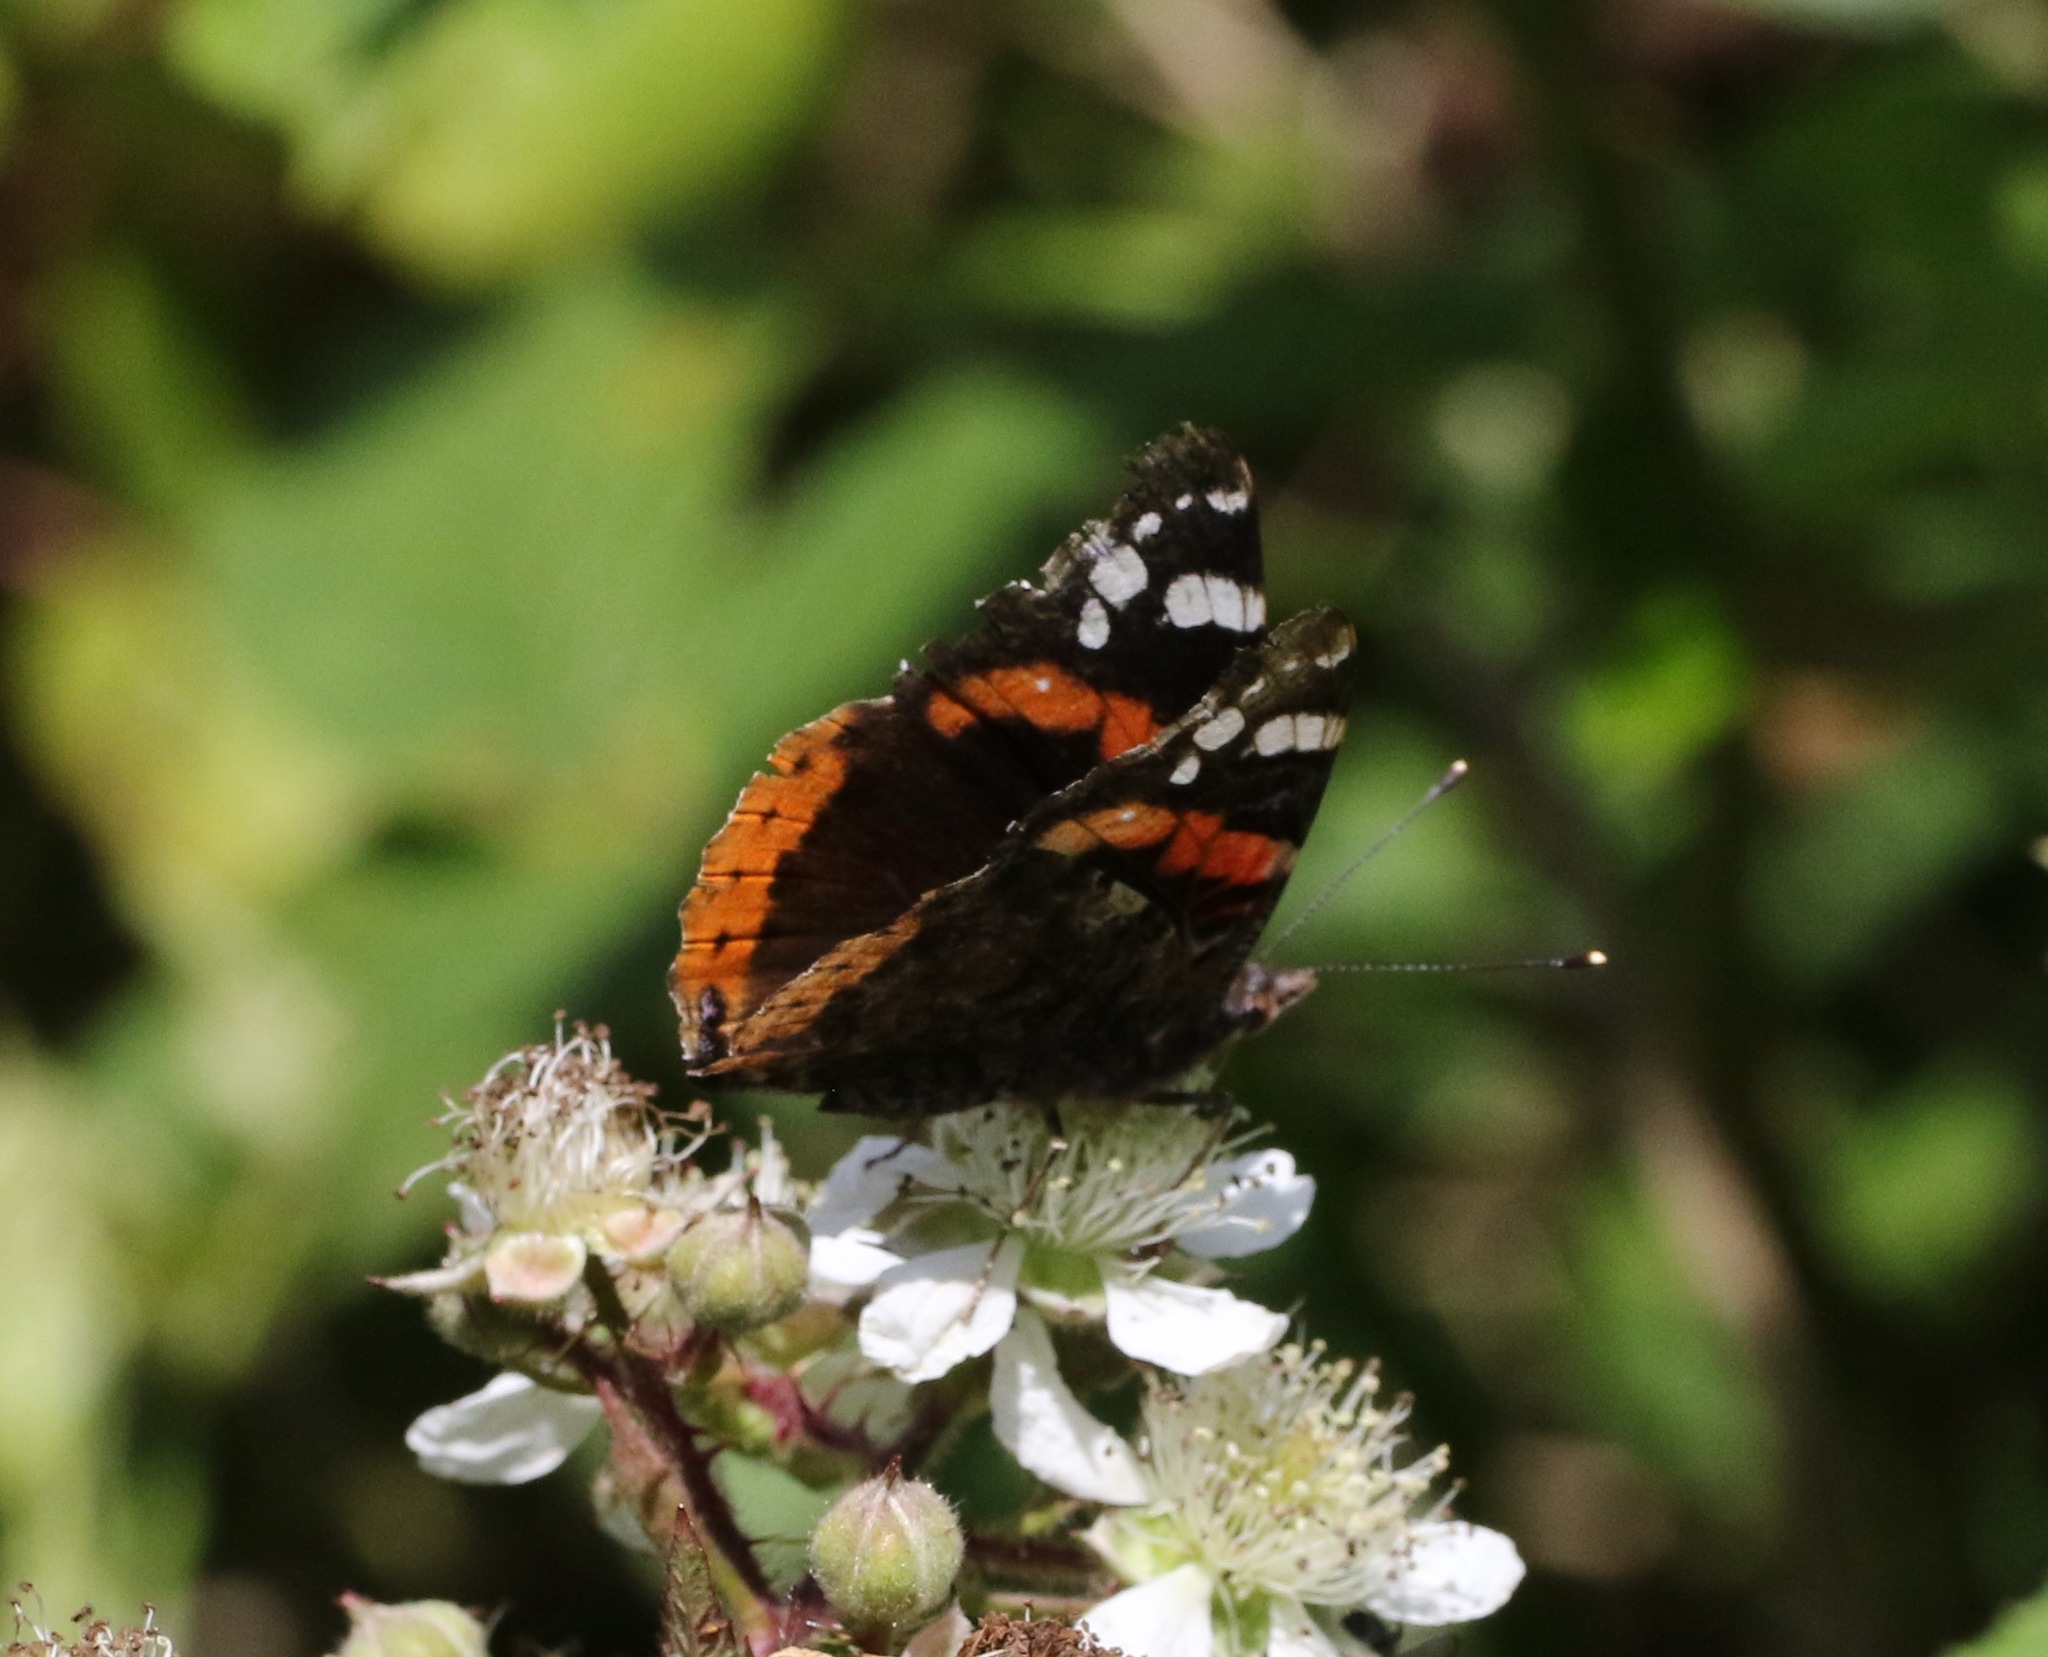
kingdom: Animalia
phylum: Arthropoda
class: Insecta
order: Lepidoptera
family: Nymphalidae
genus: Vanessa
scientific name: Vanessa atalanta
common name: Red admiral
